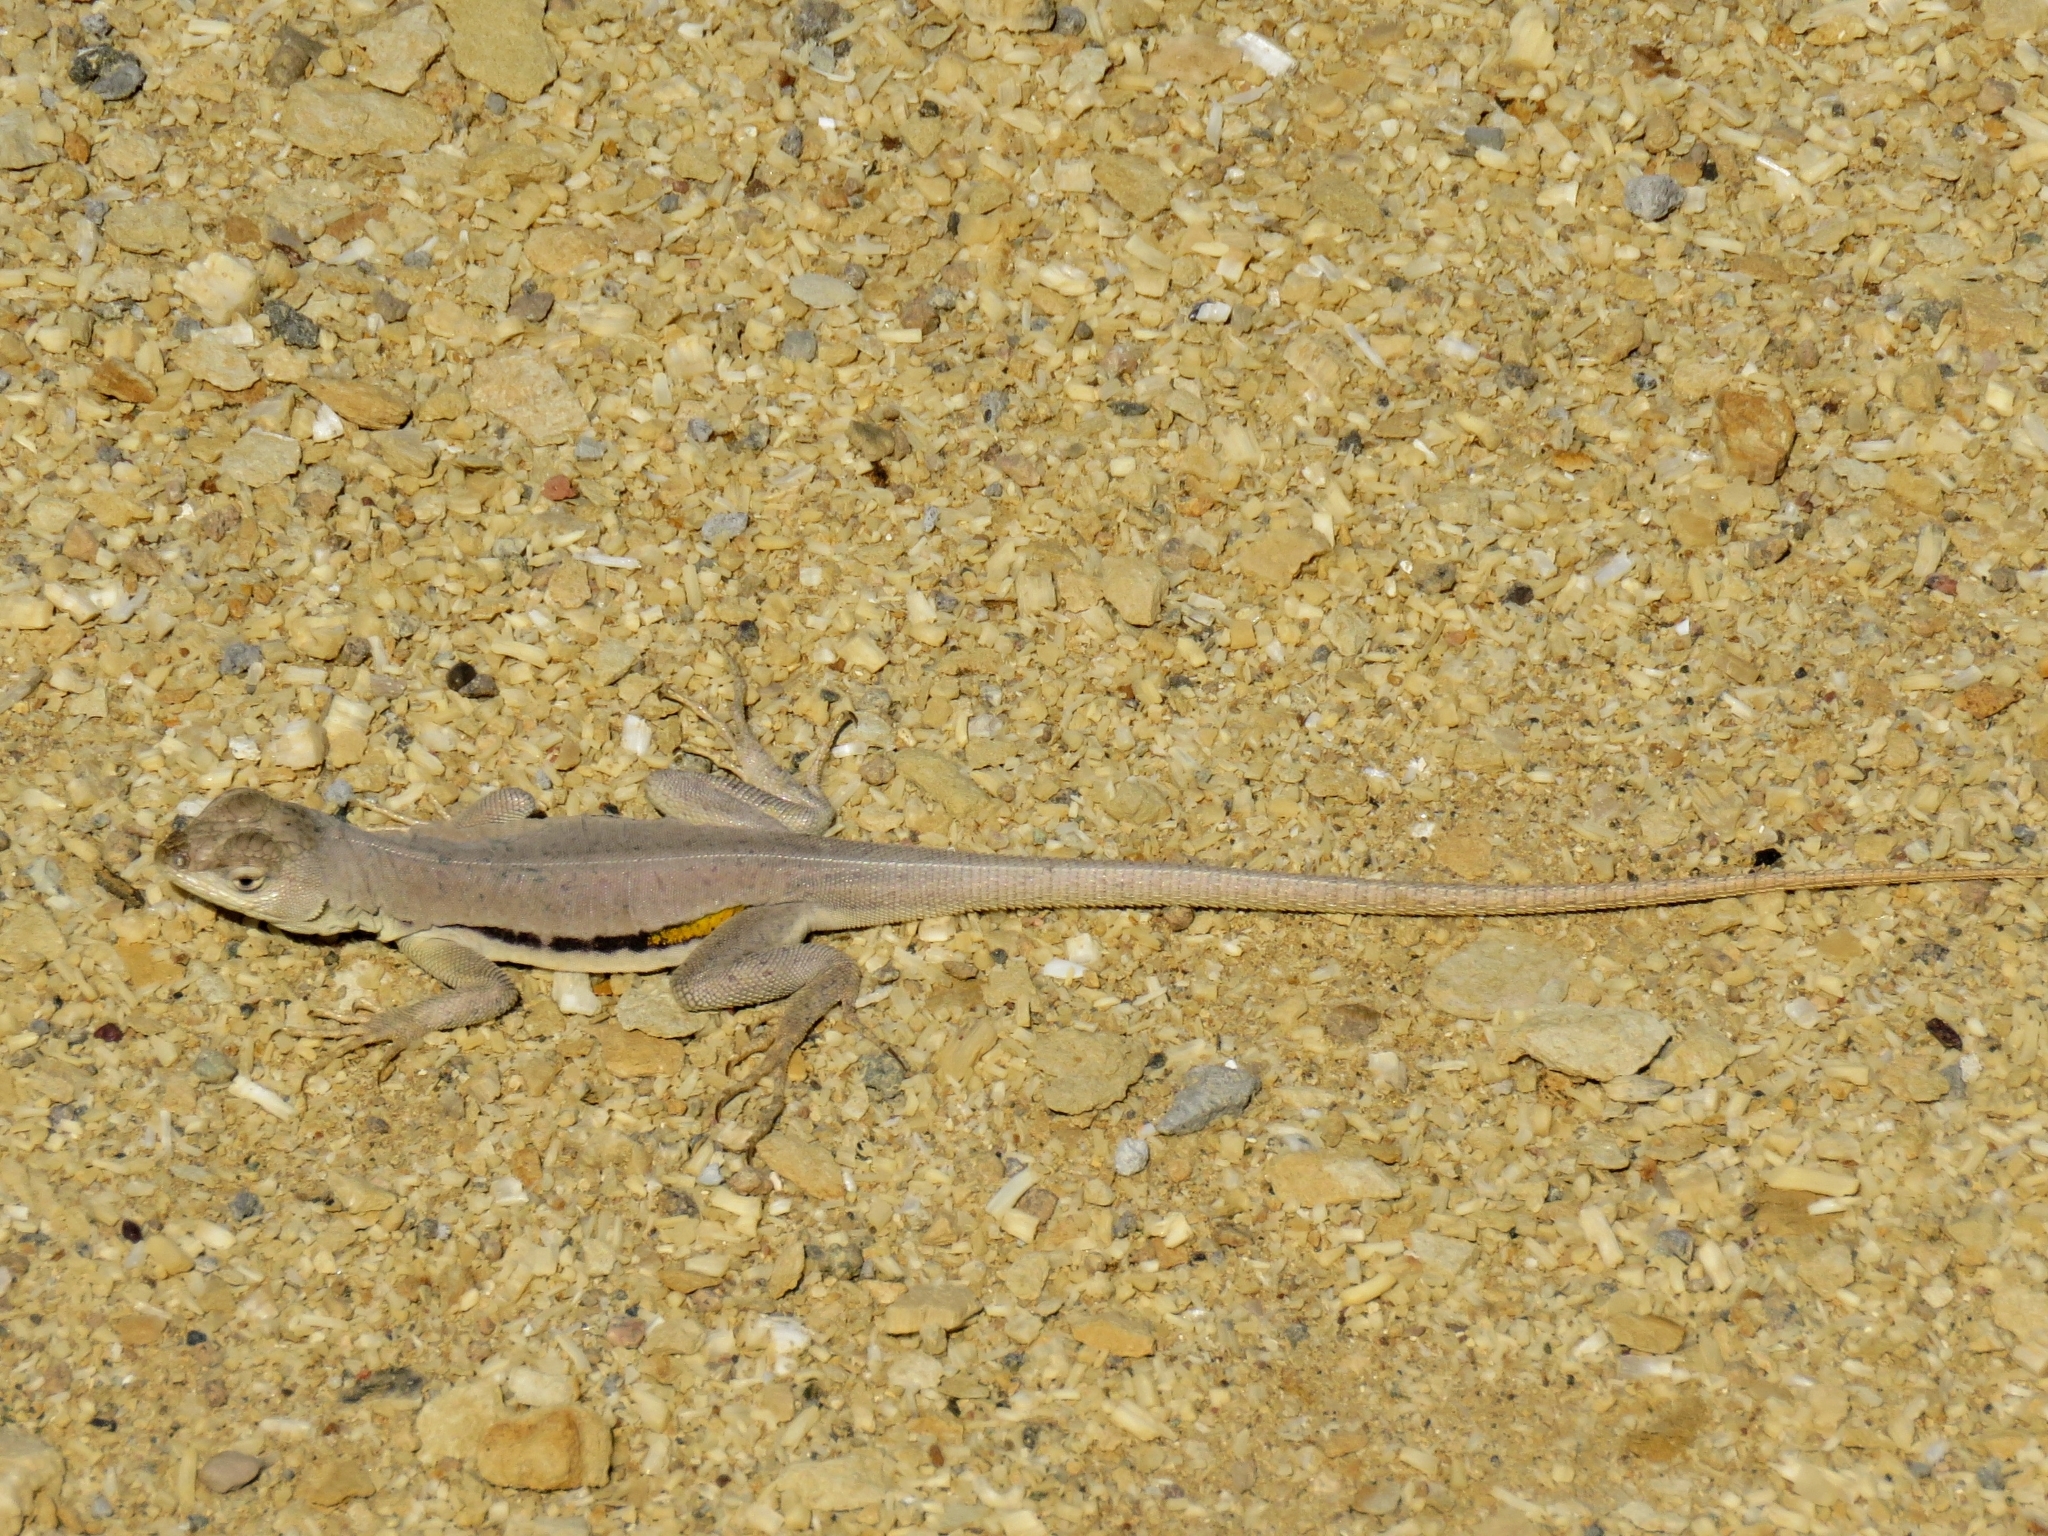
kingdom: Animalia
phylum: Chordata
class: Squamata
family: Tropiduridae
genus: Microlophus
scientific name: Microlophus peruvianus
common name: Peru pacific iguana
